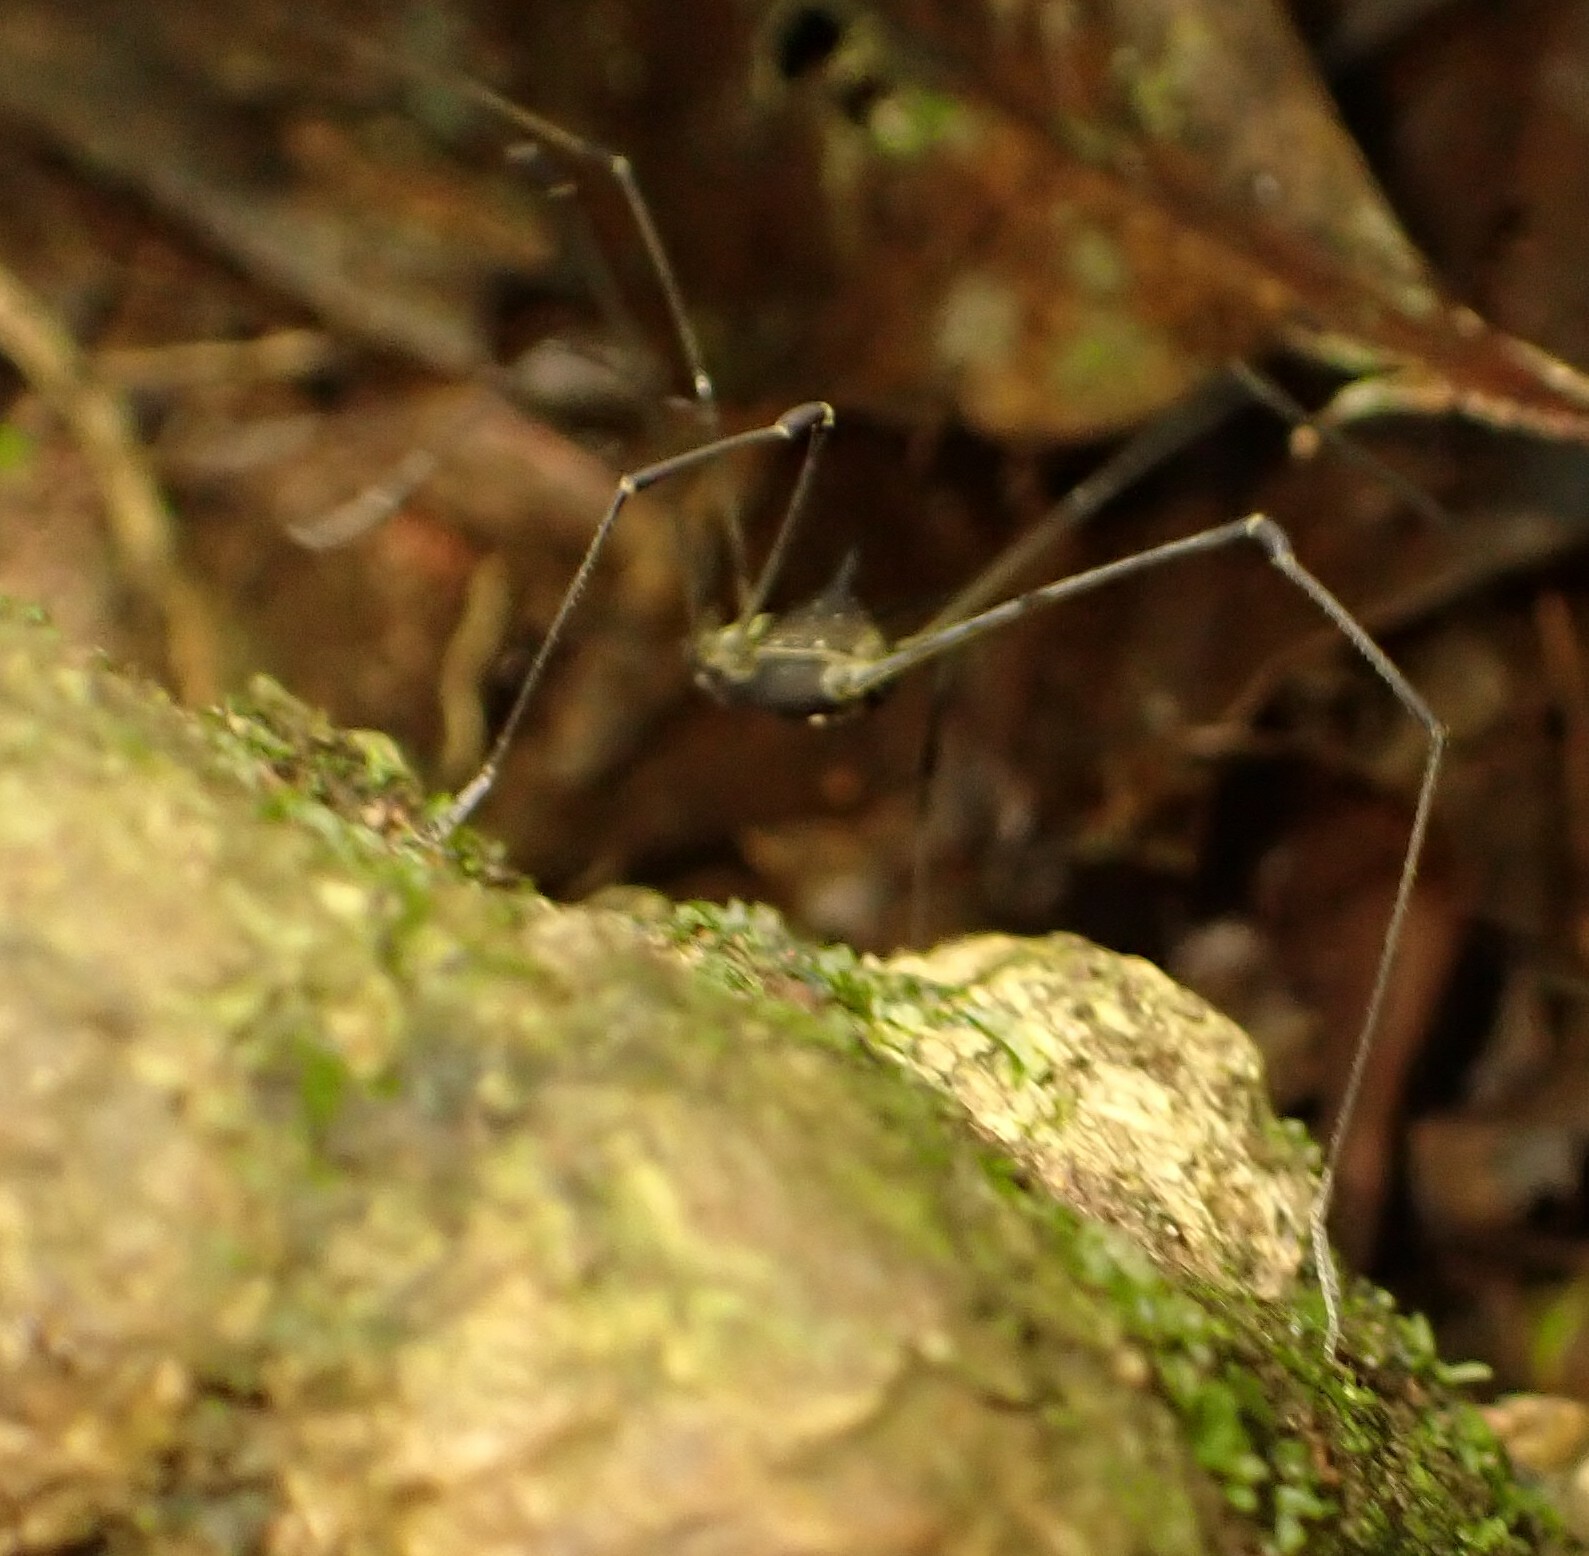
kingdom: Animalia
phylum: Arthropoda
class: Arachnida
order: Opiliones
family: Cosmetidae
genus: Cosmetus
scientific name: Cosmetus delicatus
